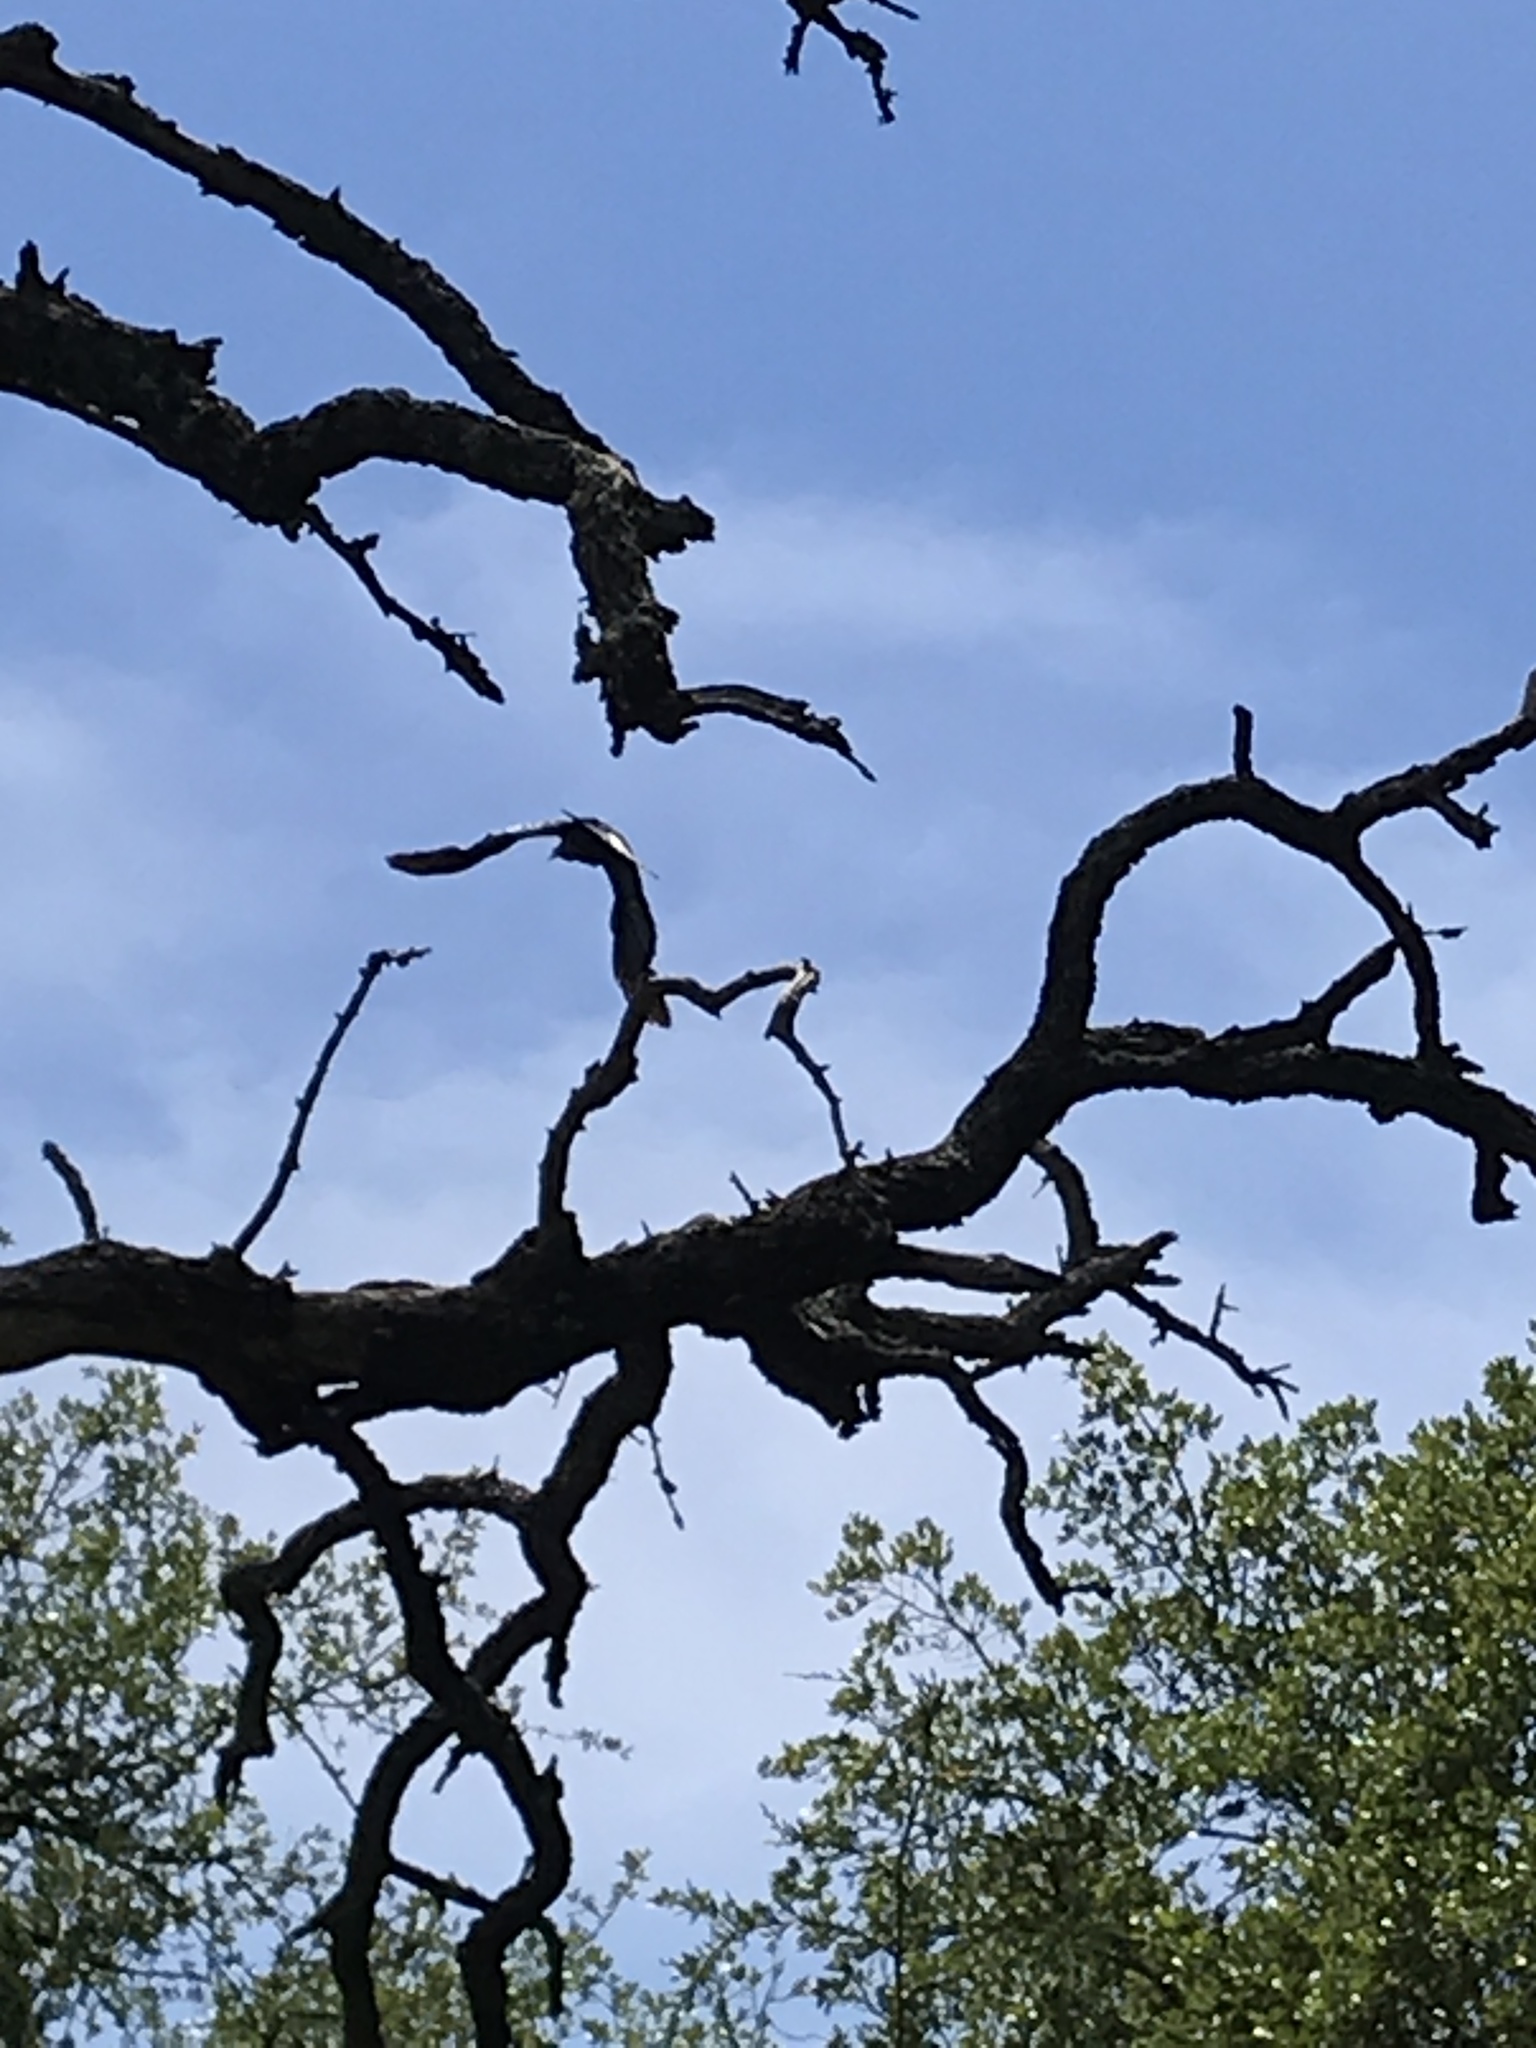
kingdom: Animalia
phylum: Chordata
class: Aves
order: Passeriformes
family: Corvidae
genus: Corvus
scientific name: Corvus brachyrhynchos
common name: American crow
